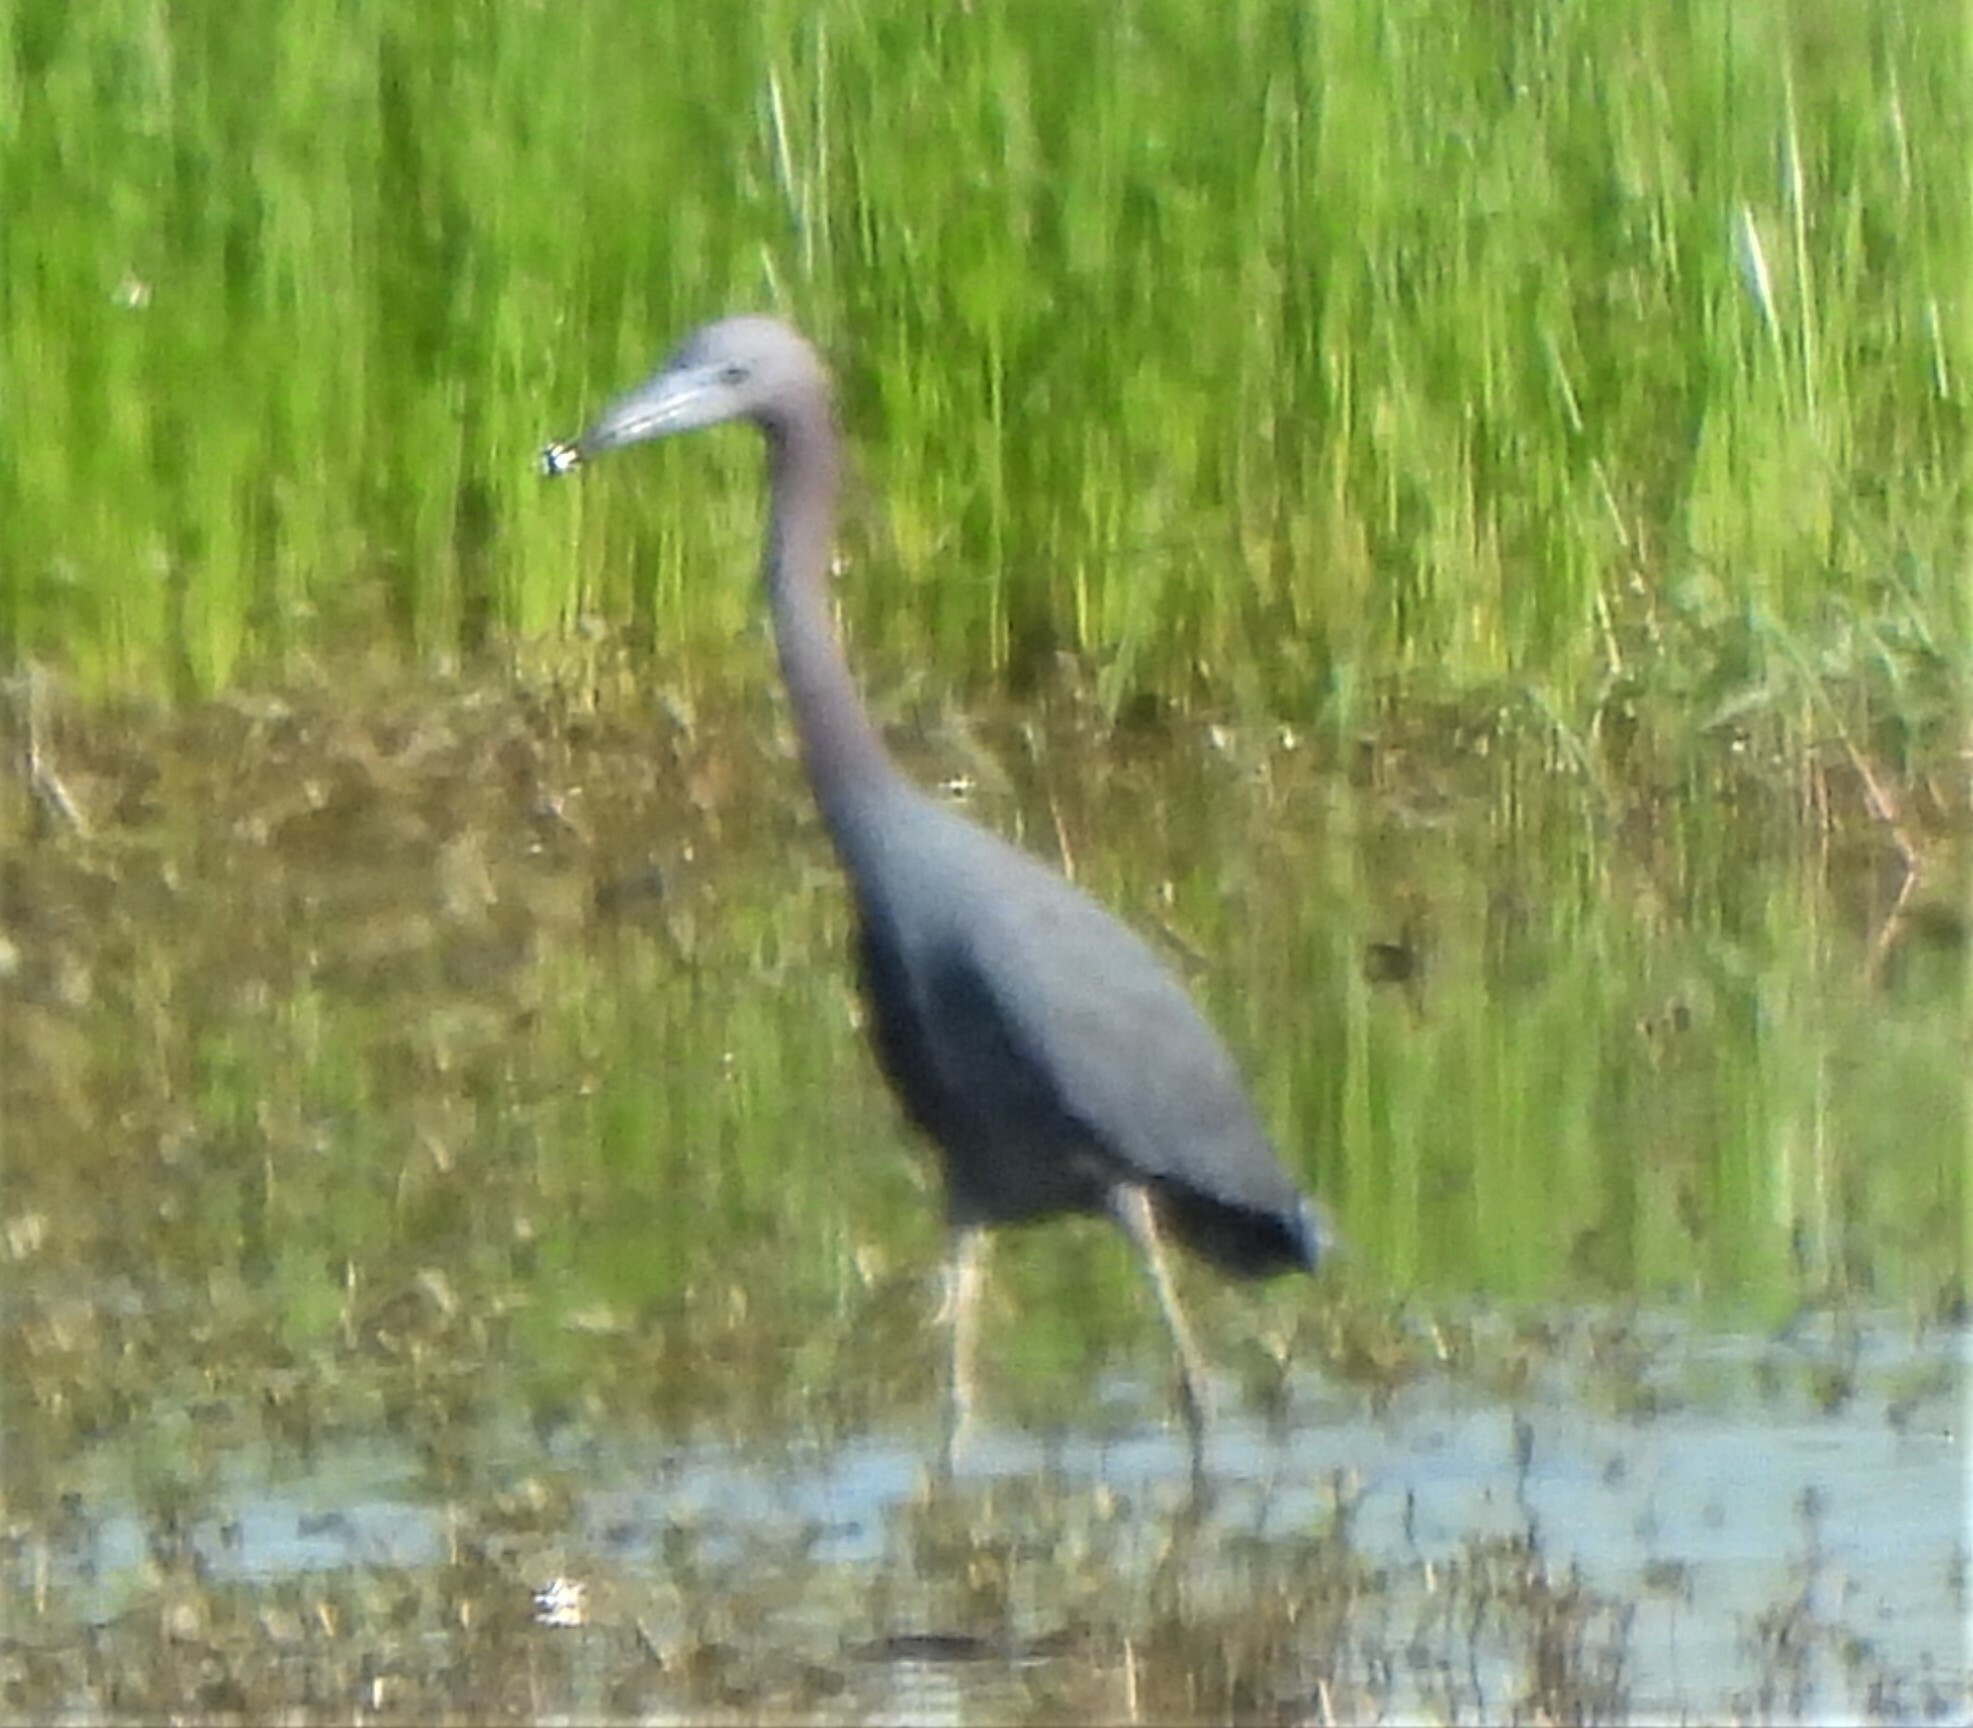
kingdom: Animalia
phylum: Chordata
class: Aves
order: Pelecaniformes
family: Ardeidae
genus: Egretta
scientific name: Egretta caerulea
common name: Little blue heron
